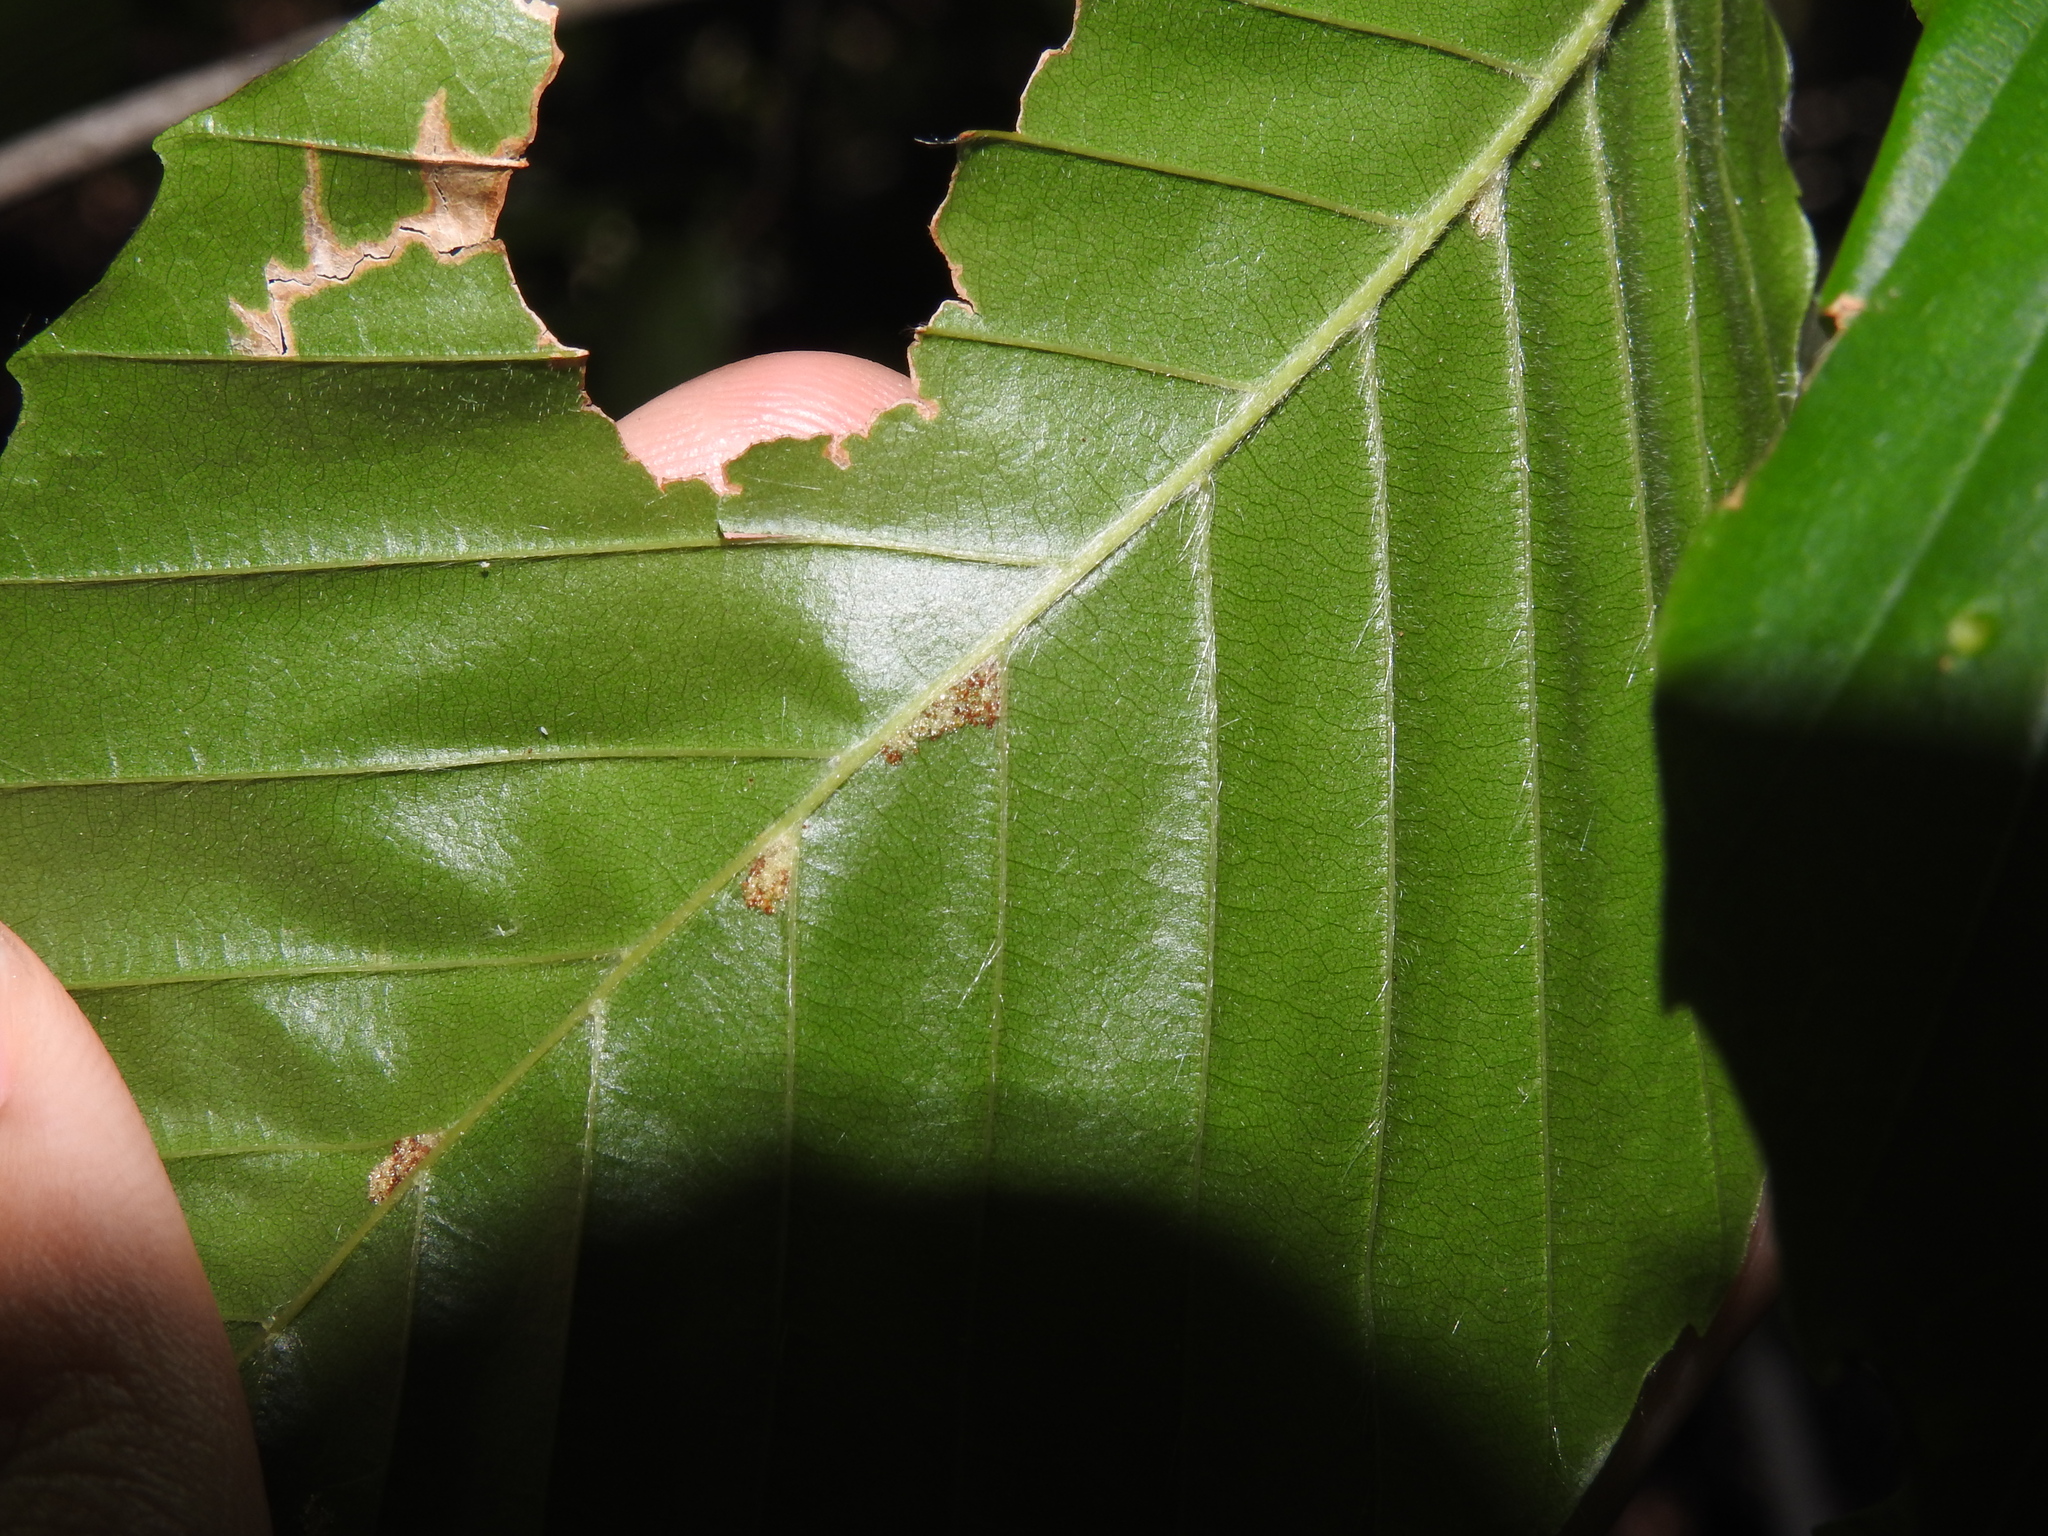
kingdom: Animalia
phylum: Arthropoda
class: Arachnida
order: Trombidiformes
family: Eriophyidae
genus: Acalitus
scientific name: Acalitus
